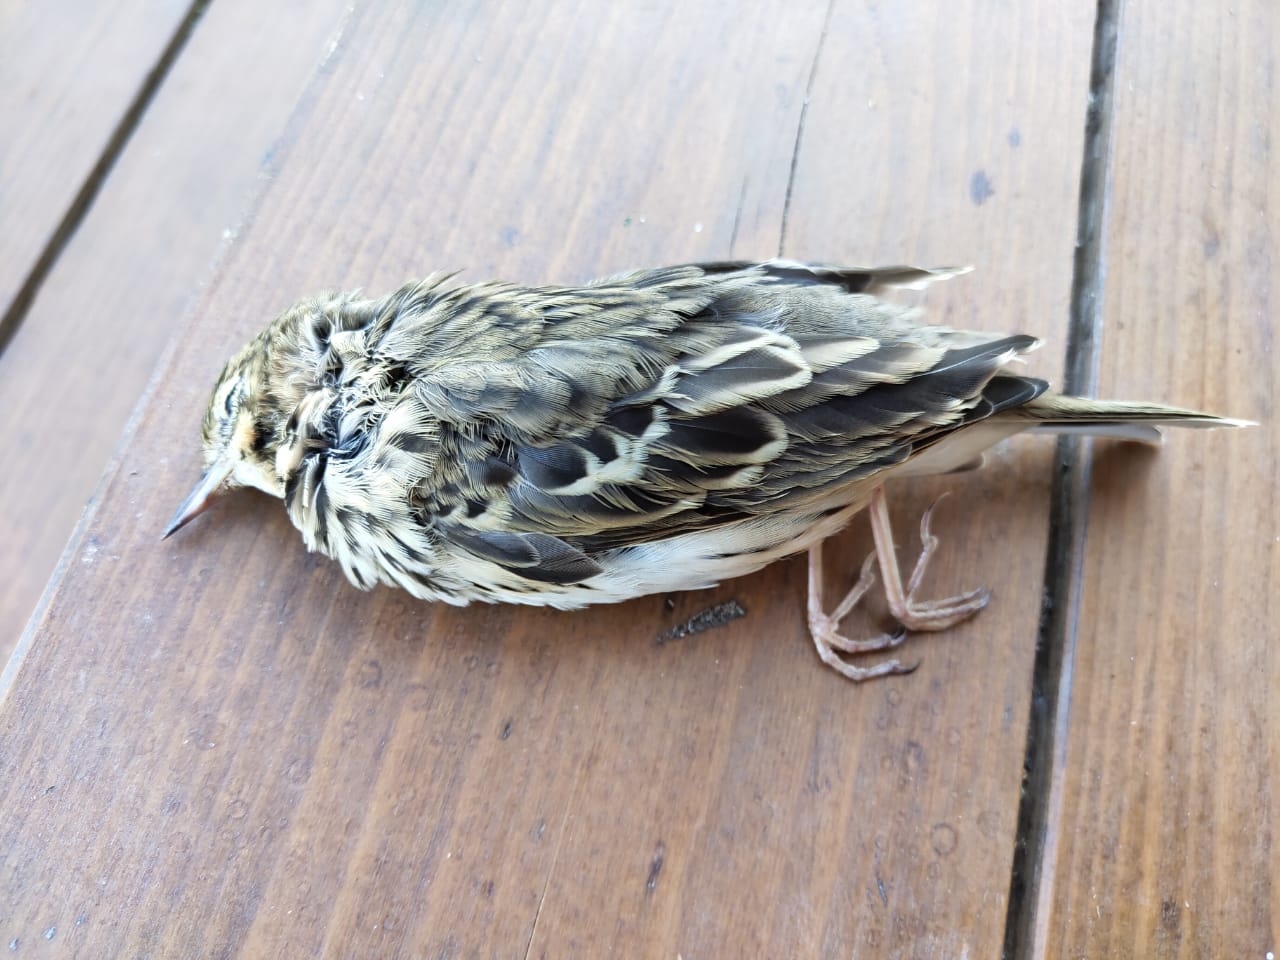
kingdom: Animalia
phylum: Chordata
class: Aves
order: Passeriformes
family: Motacillidae
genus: Anthus
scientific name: Anthus trivialis
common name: Tree pipit
